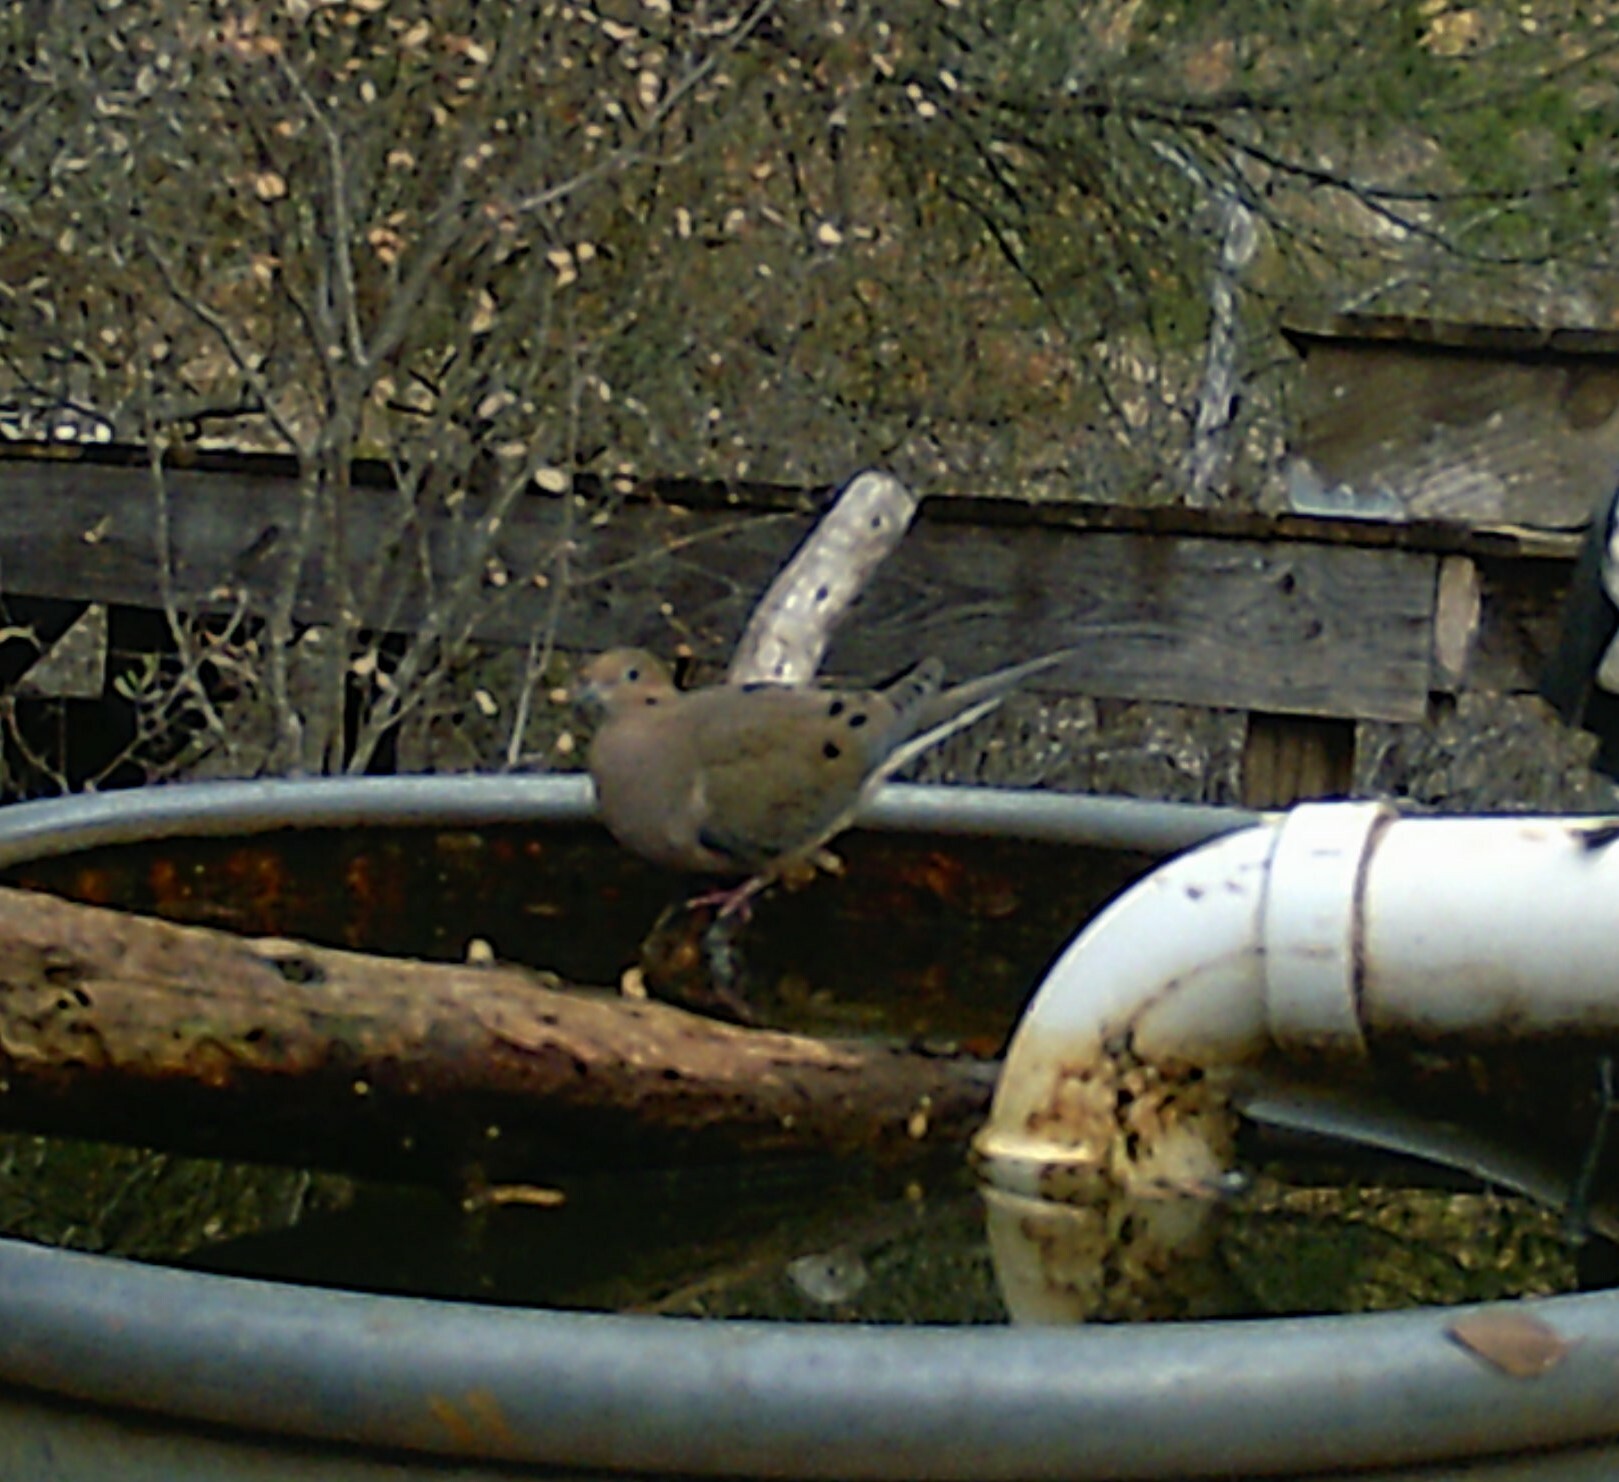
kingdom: Animalia
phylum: Chordata
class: Aves
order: Columbiformes
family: Columbidae
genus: Zenaida
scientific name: Zenaida macroura
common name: Mourning dove
